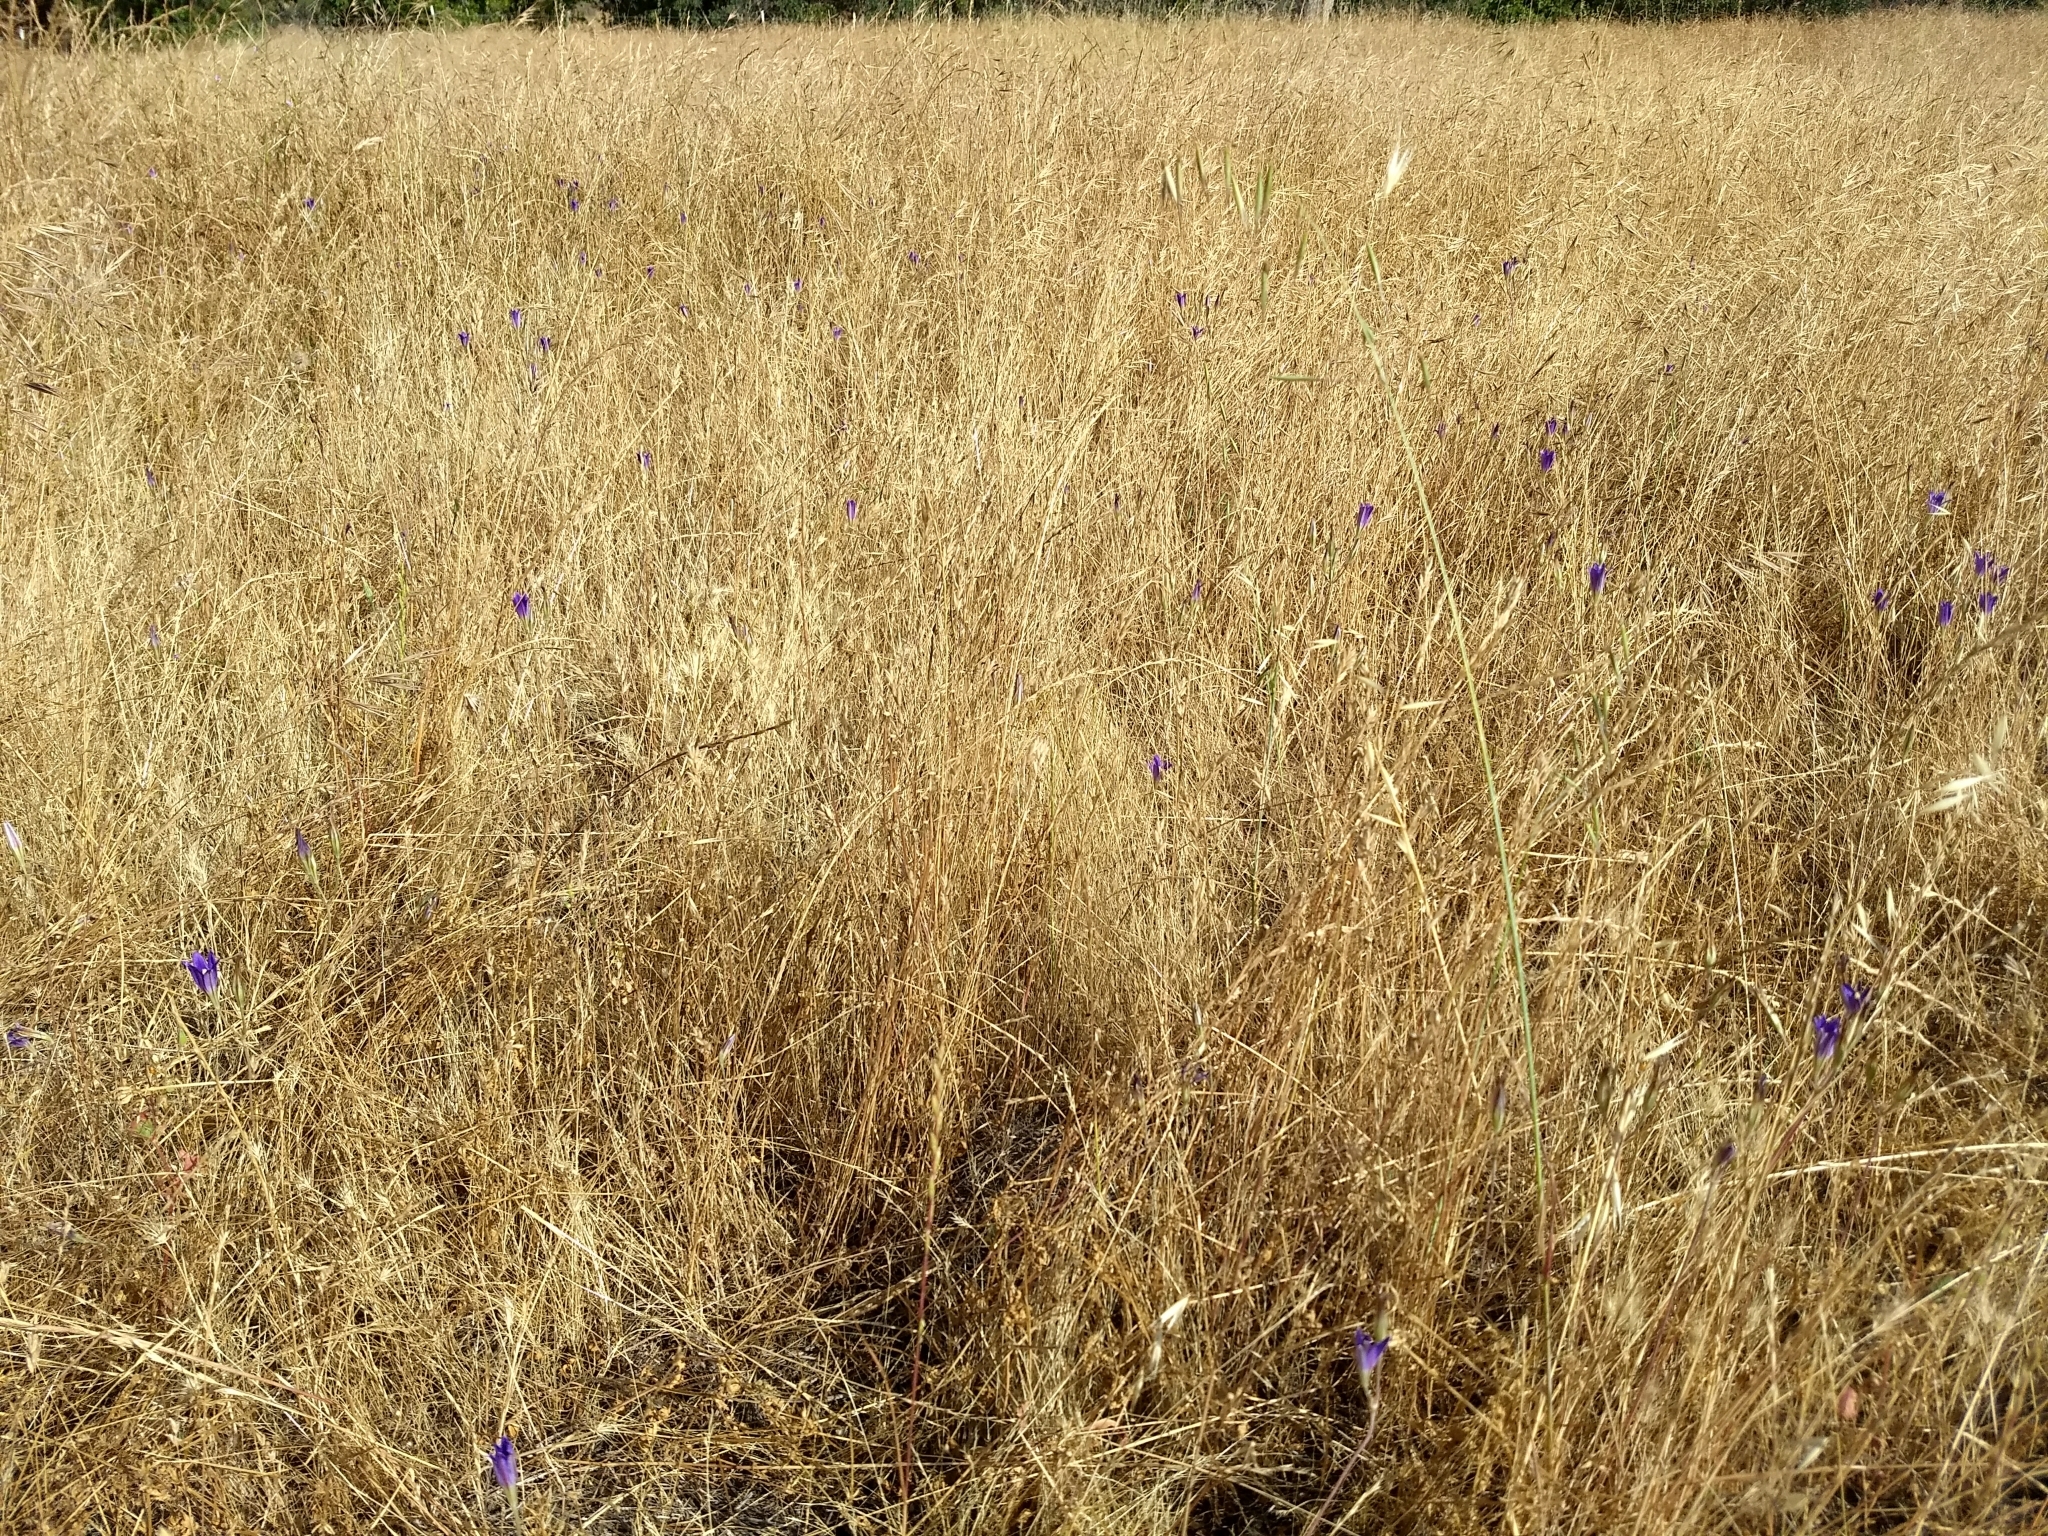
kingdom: Plantae
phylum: Tracheophyta
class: Liliopsida
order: Asparagales
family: Asparagaceae
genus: Brodiaea
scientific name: Brodiaea elegans
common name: Elegant cluster-lily
